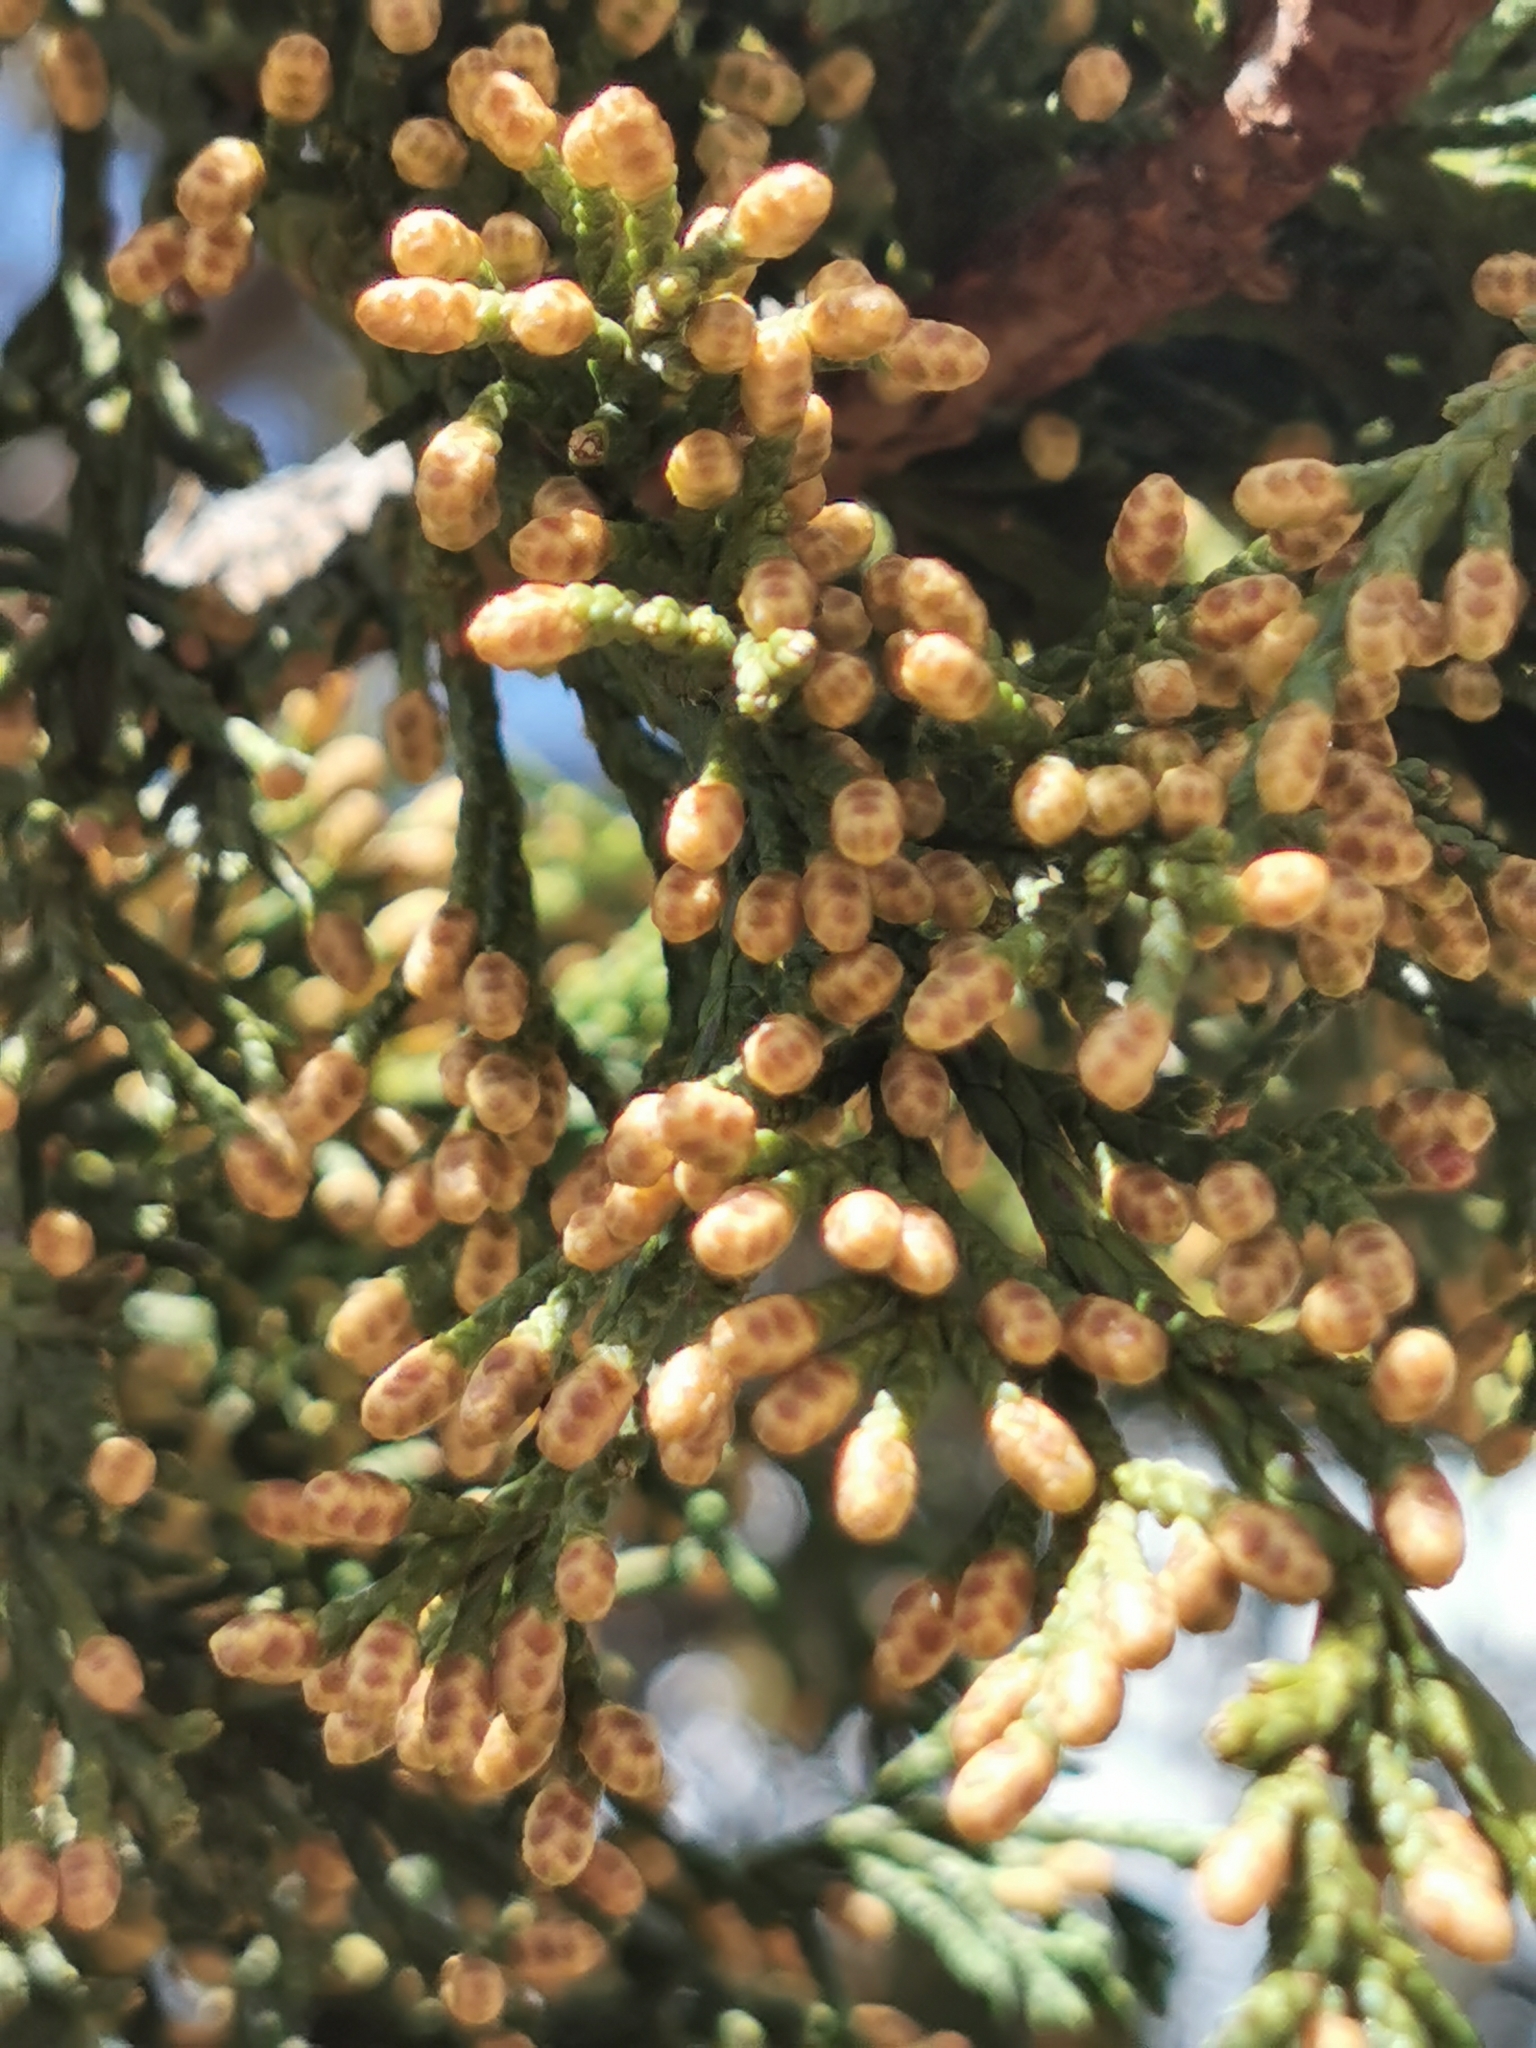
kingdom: Plantae
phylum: Tracheophyta
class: Pinopsida
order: Pinales
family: Cupressaceae
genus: Juniperus
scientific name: Juniperus deppeana
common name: Alligator juniper
